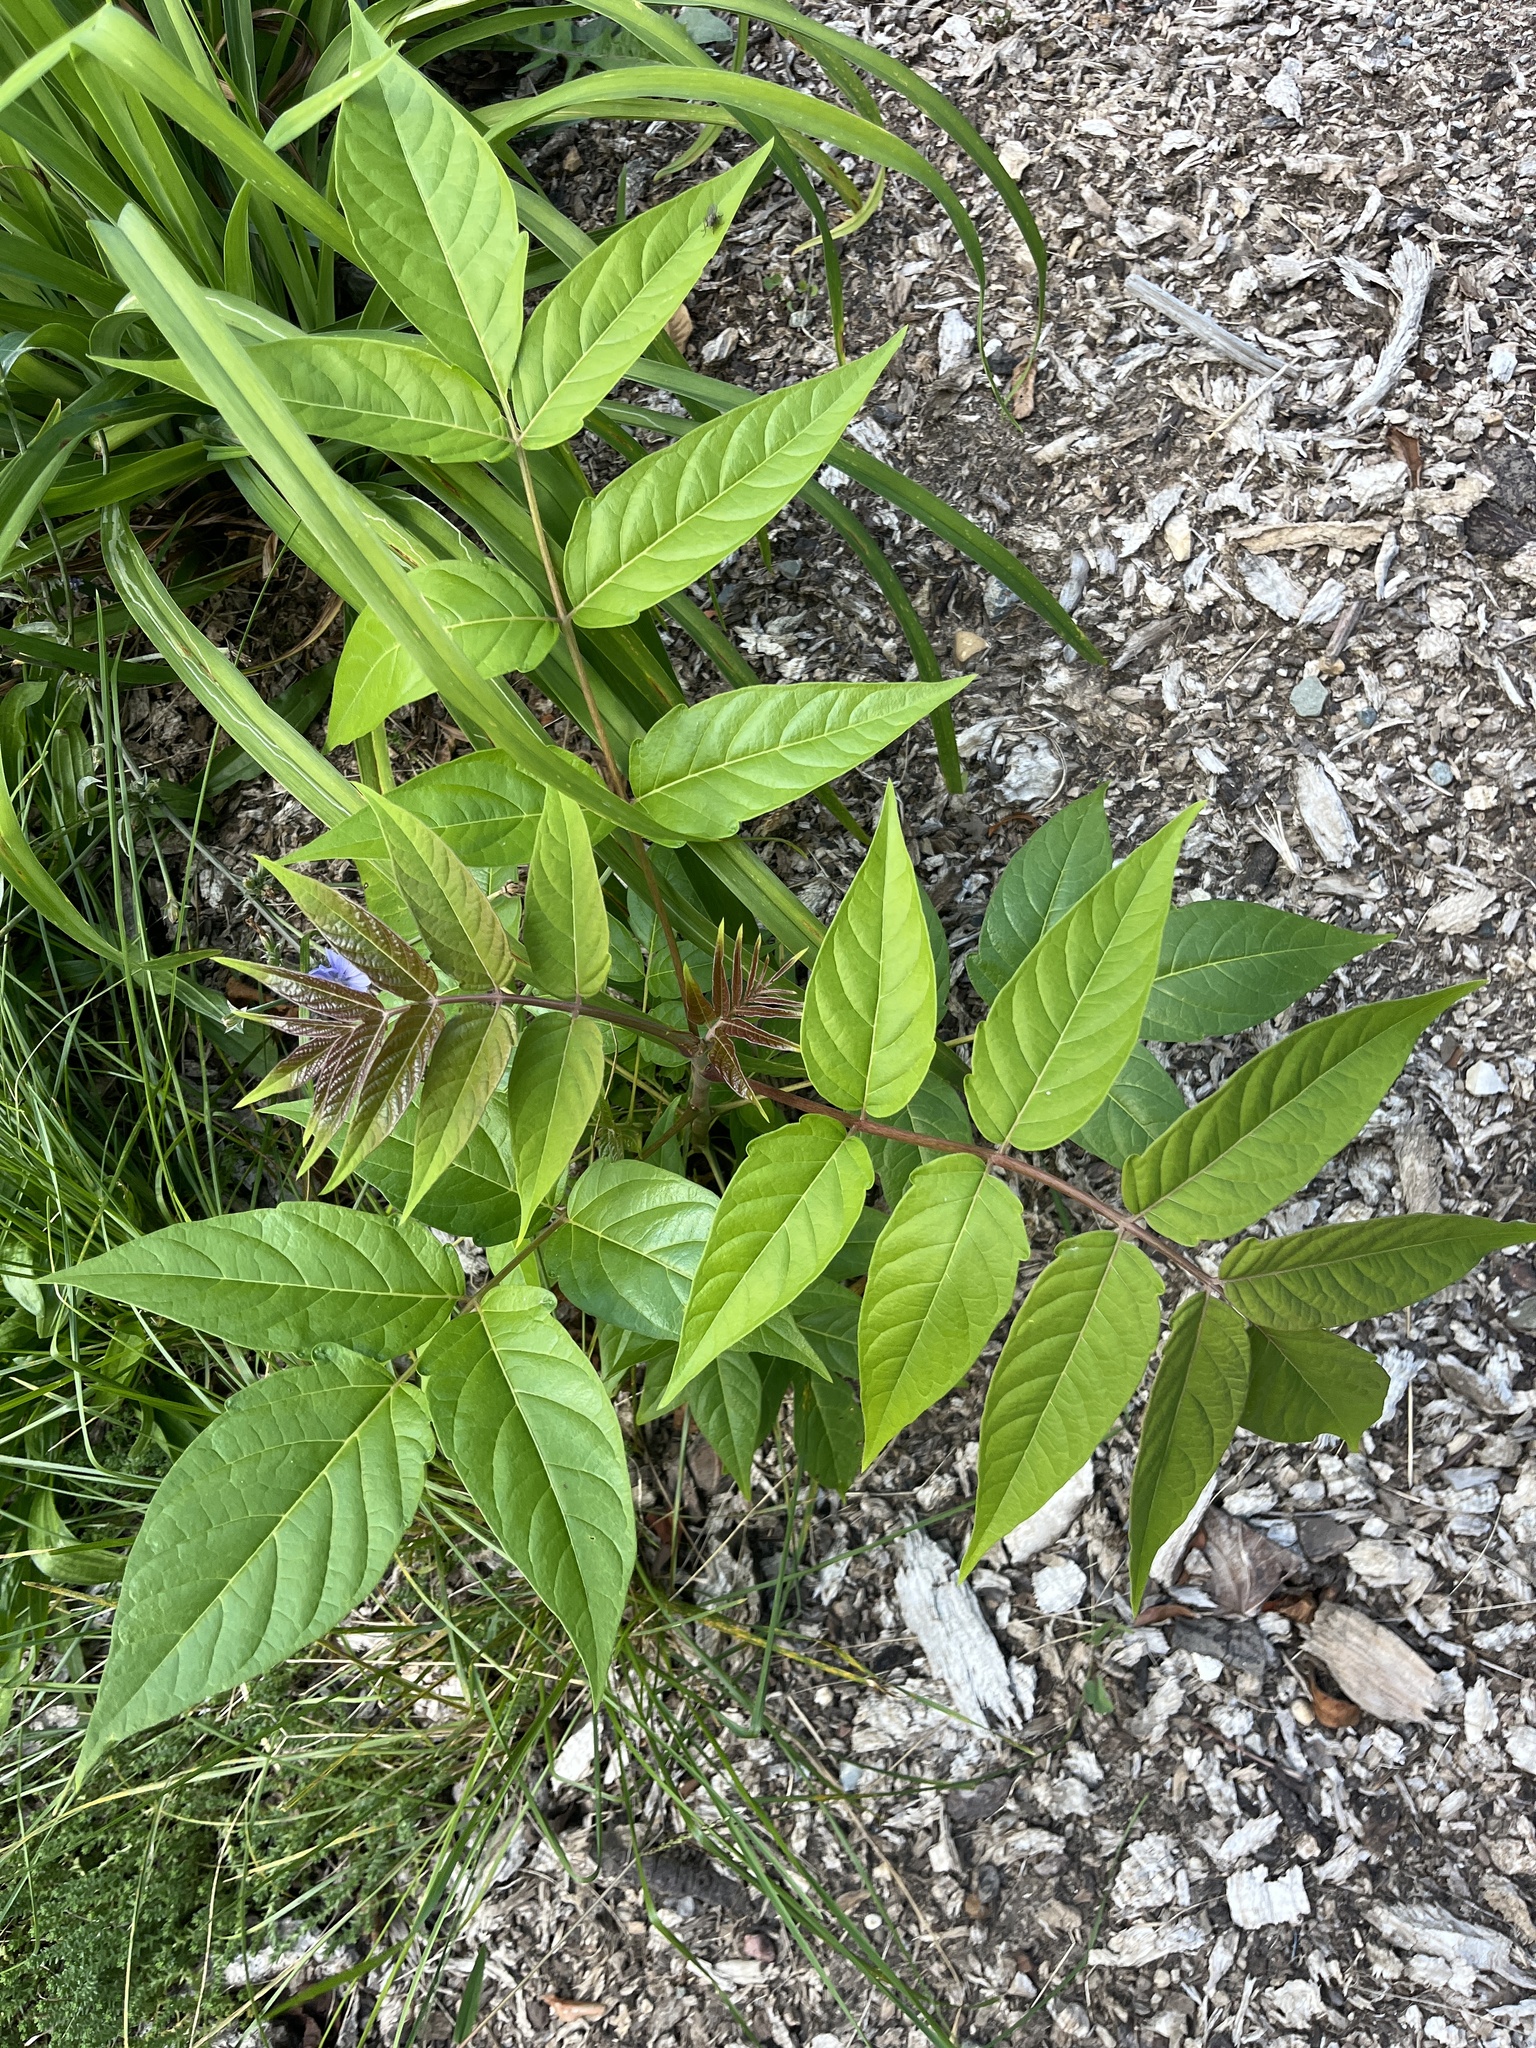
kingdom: Plantae
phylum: Tracheophyta
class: Magnoliopsida
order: Sapindales
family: Simaroubaceae
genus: Ailanthus
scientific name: Ailanthus altissima
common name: Tree-of-heaven
